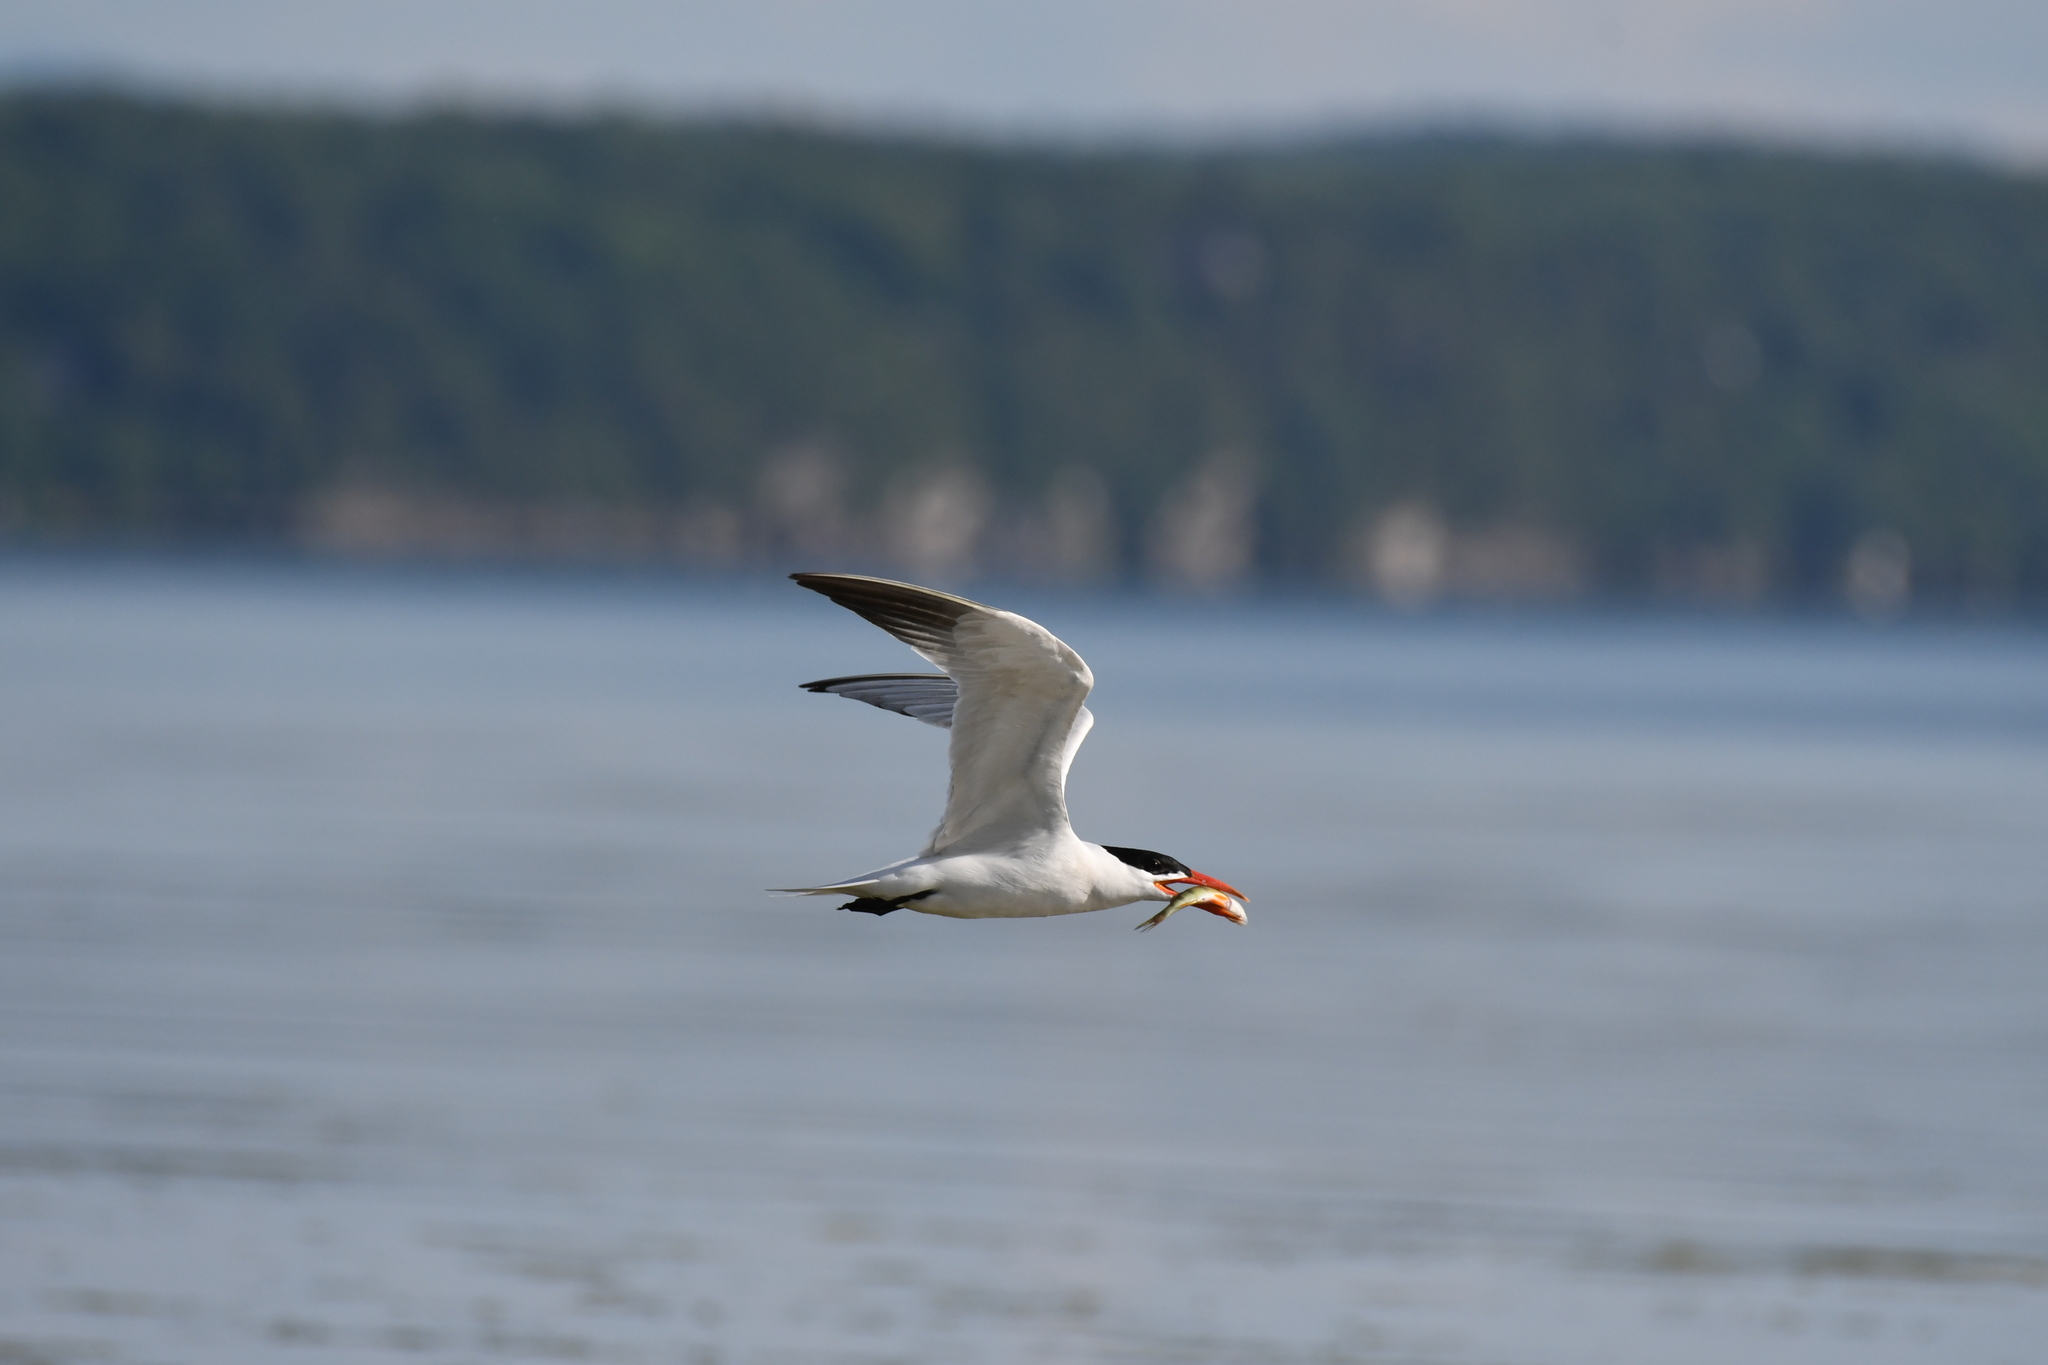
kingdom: Animalia
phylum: Chordata
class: Aves
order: Charadriiformes
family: Laridae
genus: Hydroprogne
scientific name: Hydroprogne caspia
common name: Caspian tern
